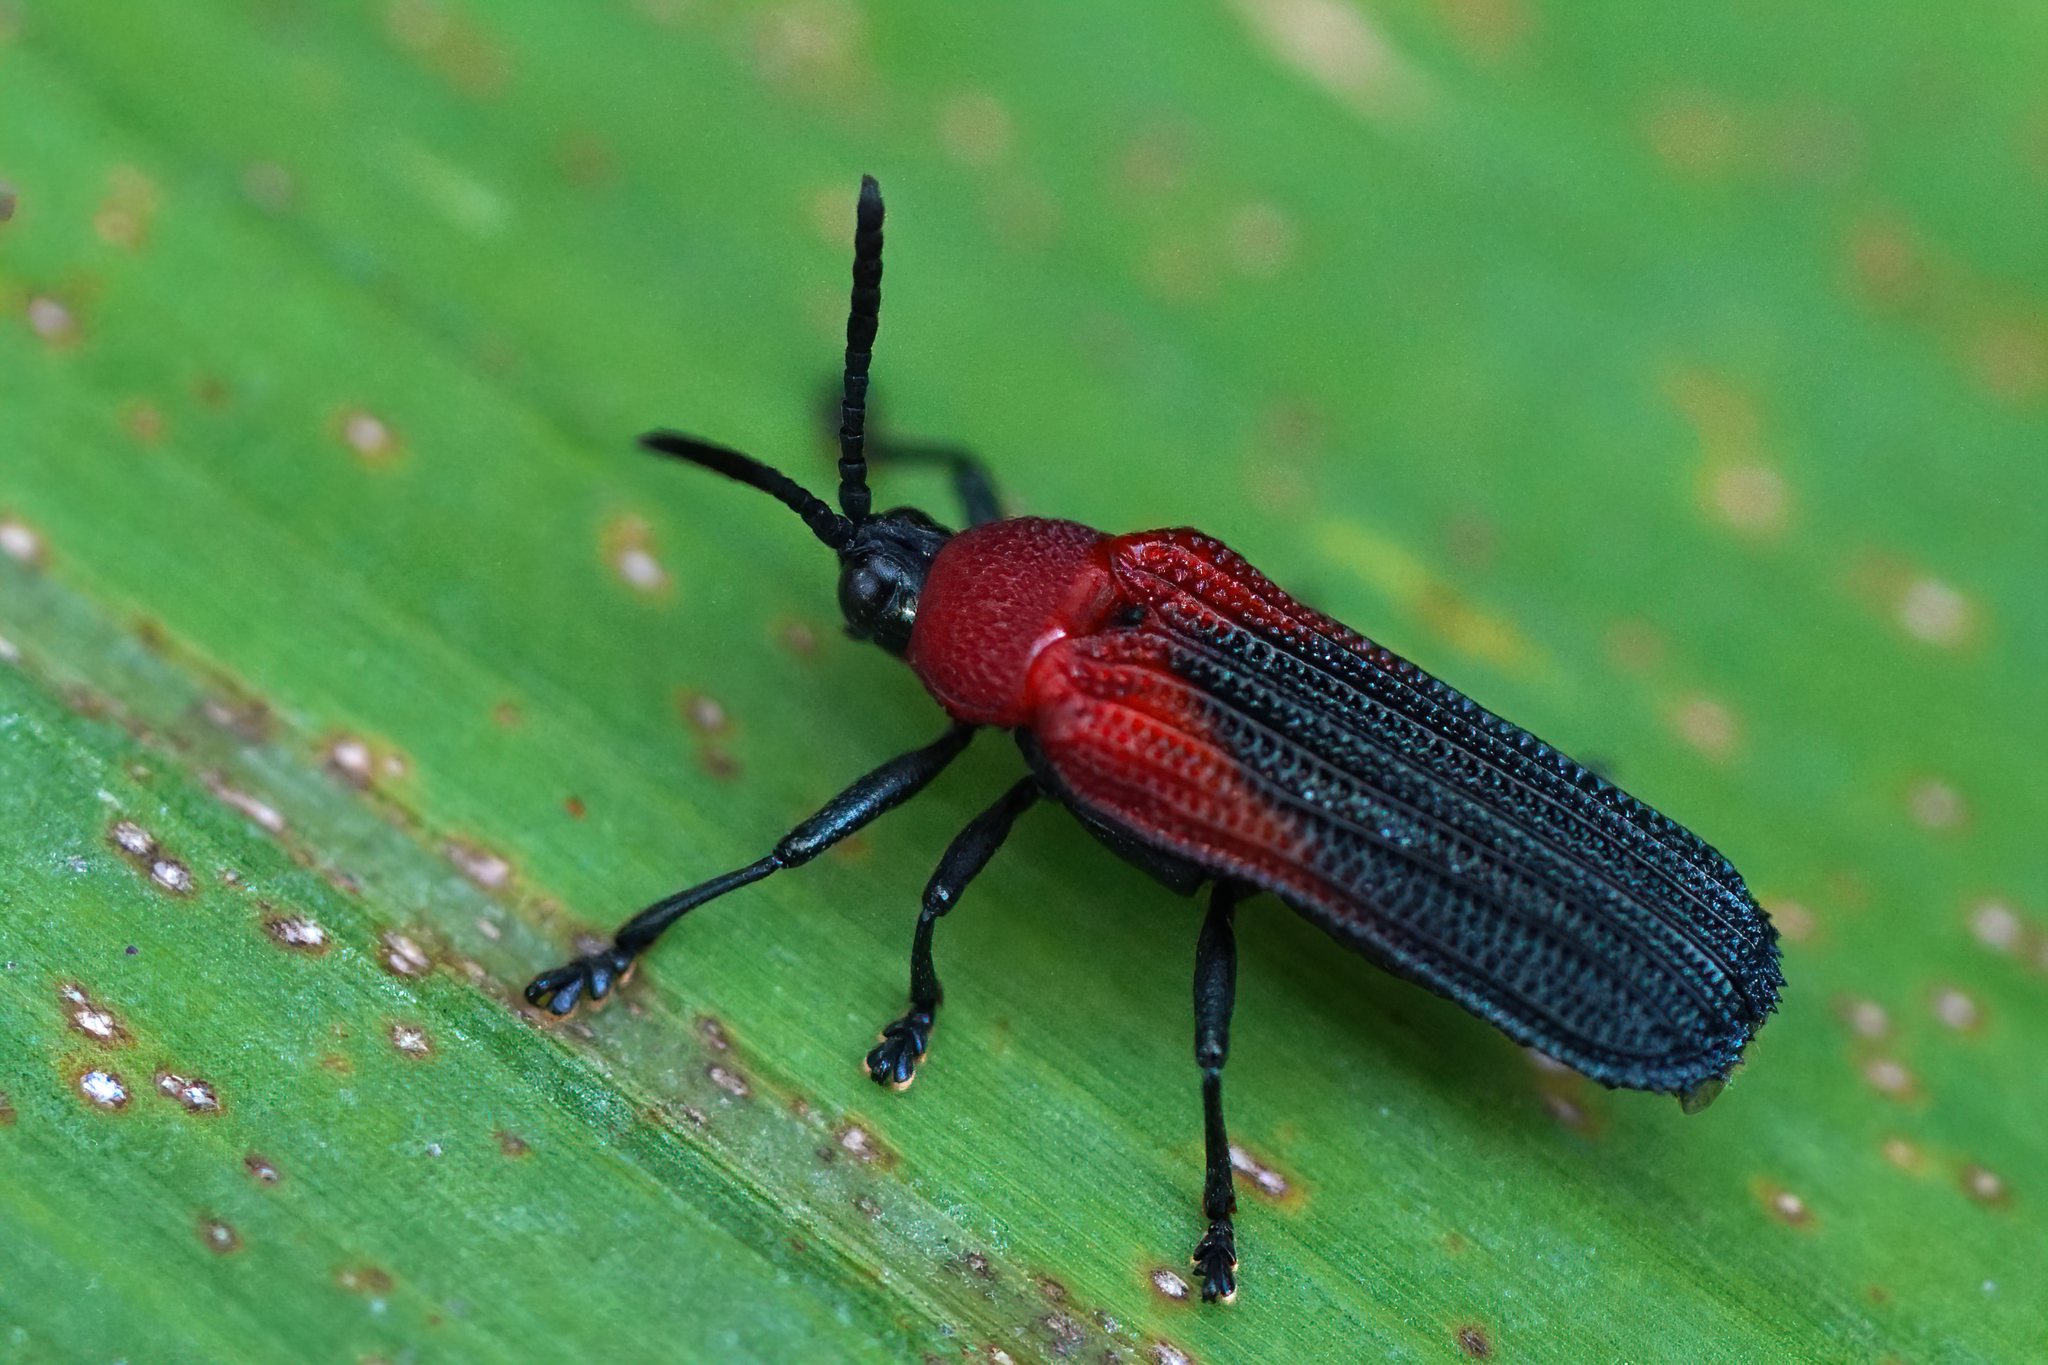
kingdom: Animalia
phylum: Arthropoda
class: Insecta
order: Coleoptera
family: Chrysomelidae
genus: Chalepus
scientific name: Chalepus sanguinicollis
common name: Red-shouldered leaf beetle
